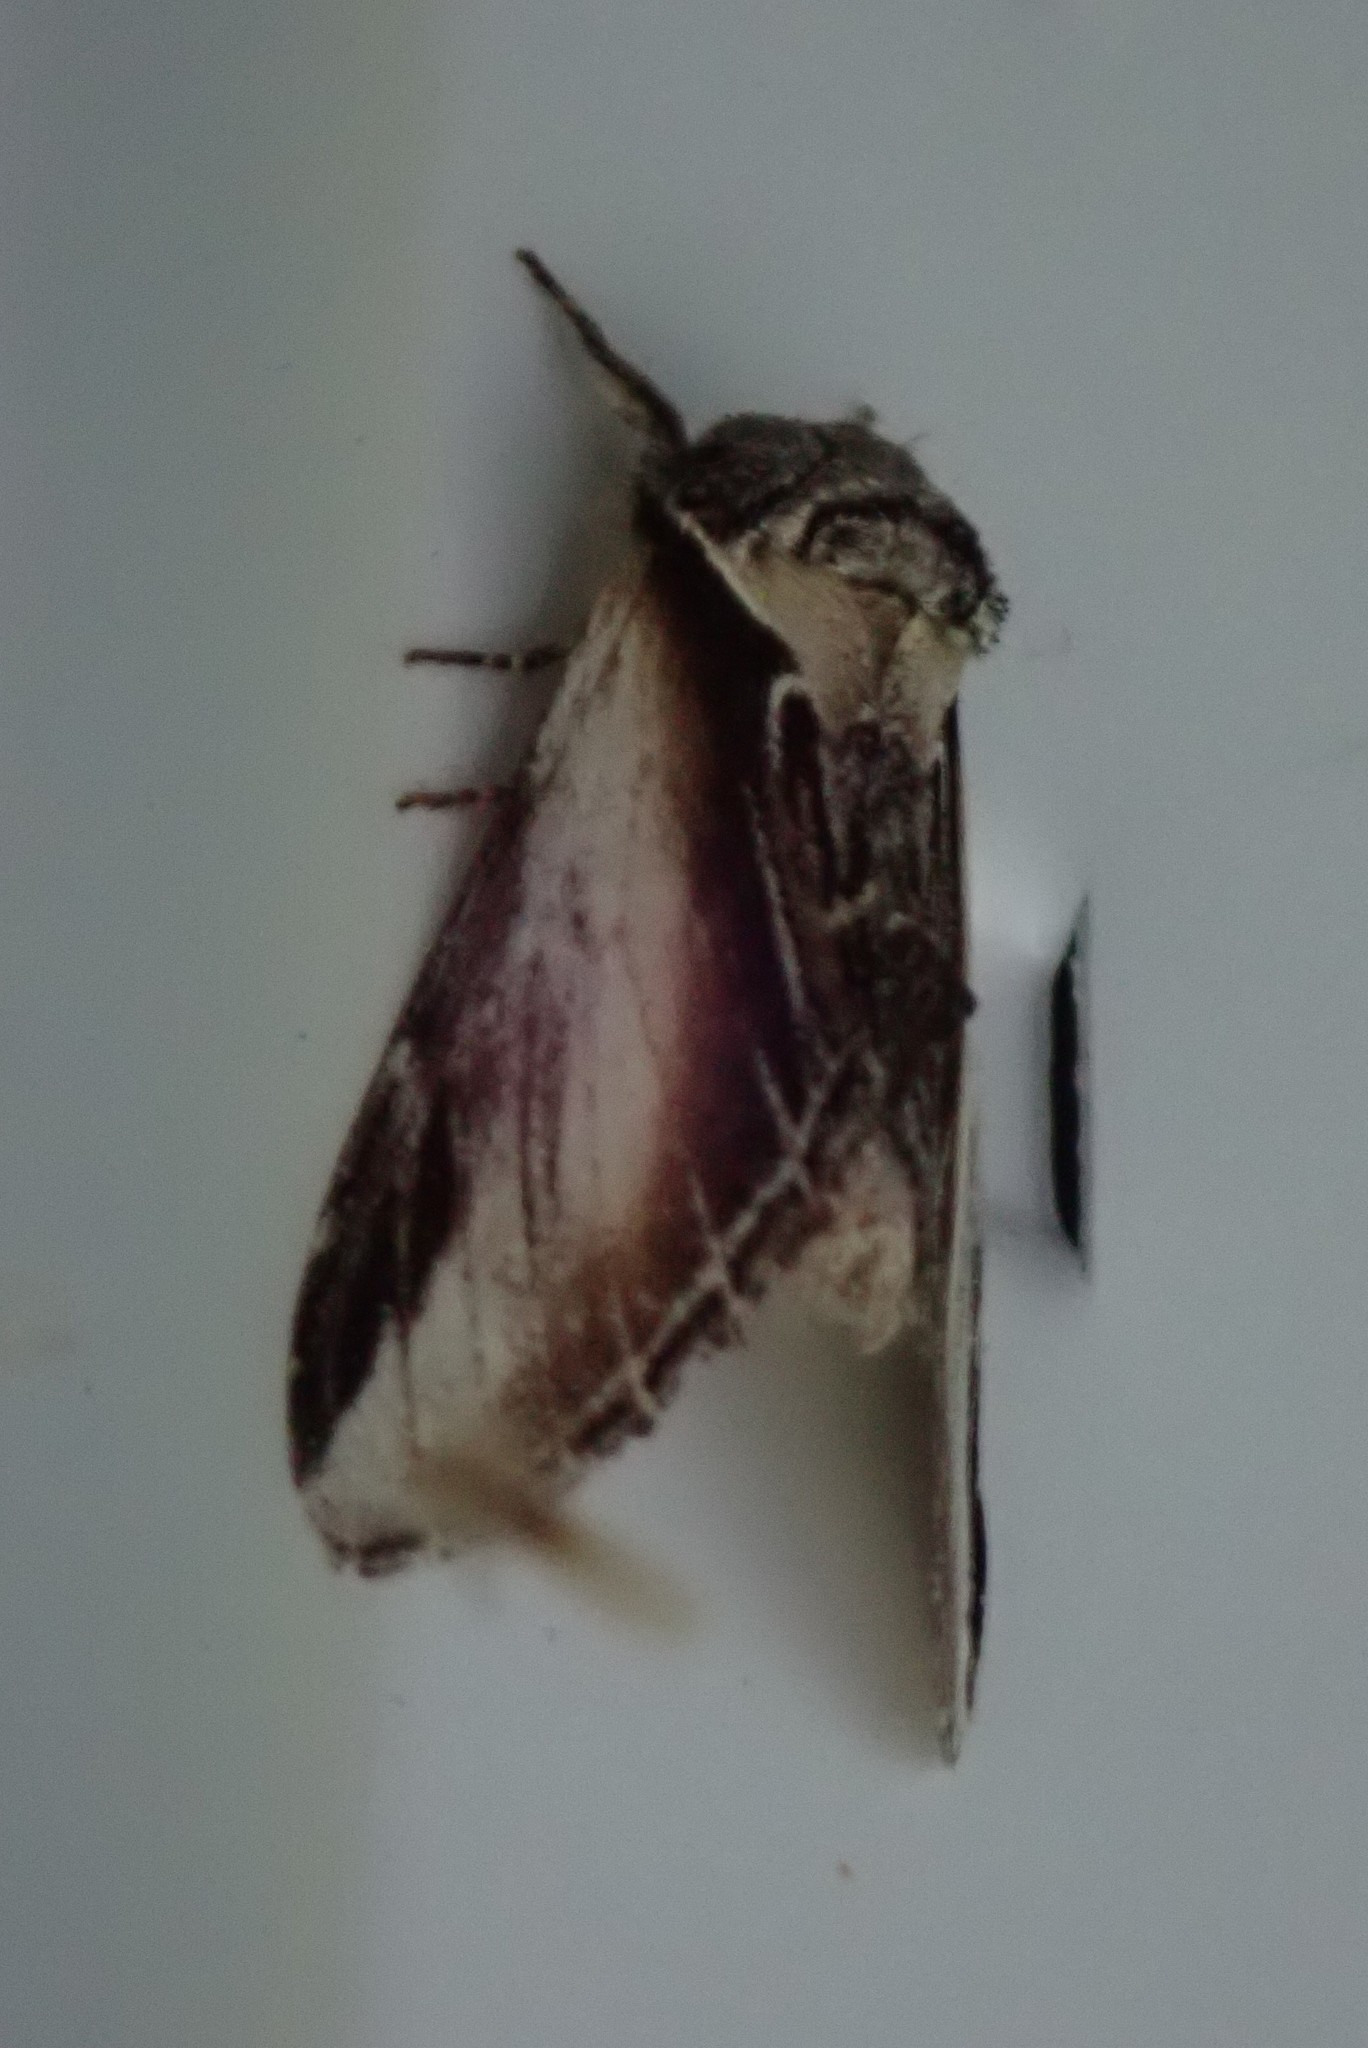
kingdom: Animalia
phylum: Arthropoda
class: Insecta
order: Lepidoptera
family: Notodontidae
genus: Pheosia
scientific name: Pheosia rimosa
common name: Black-rimmed prominent
